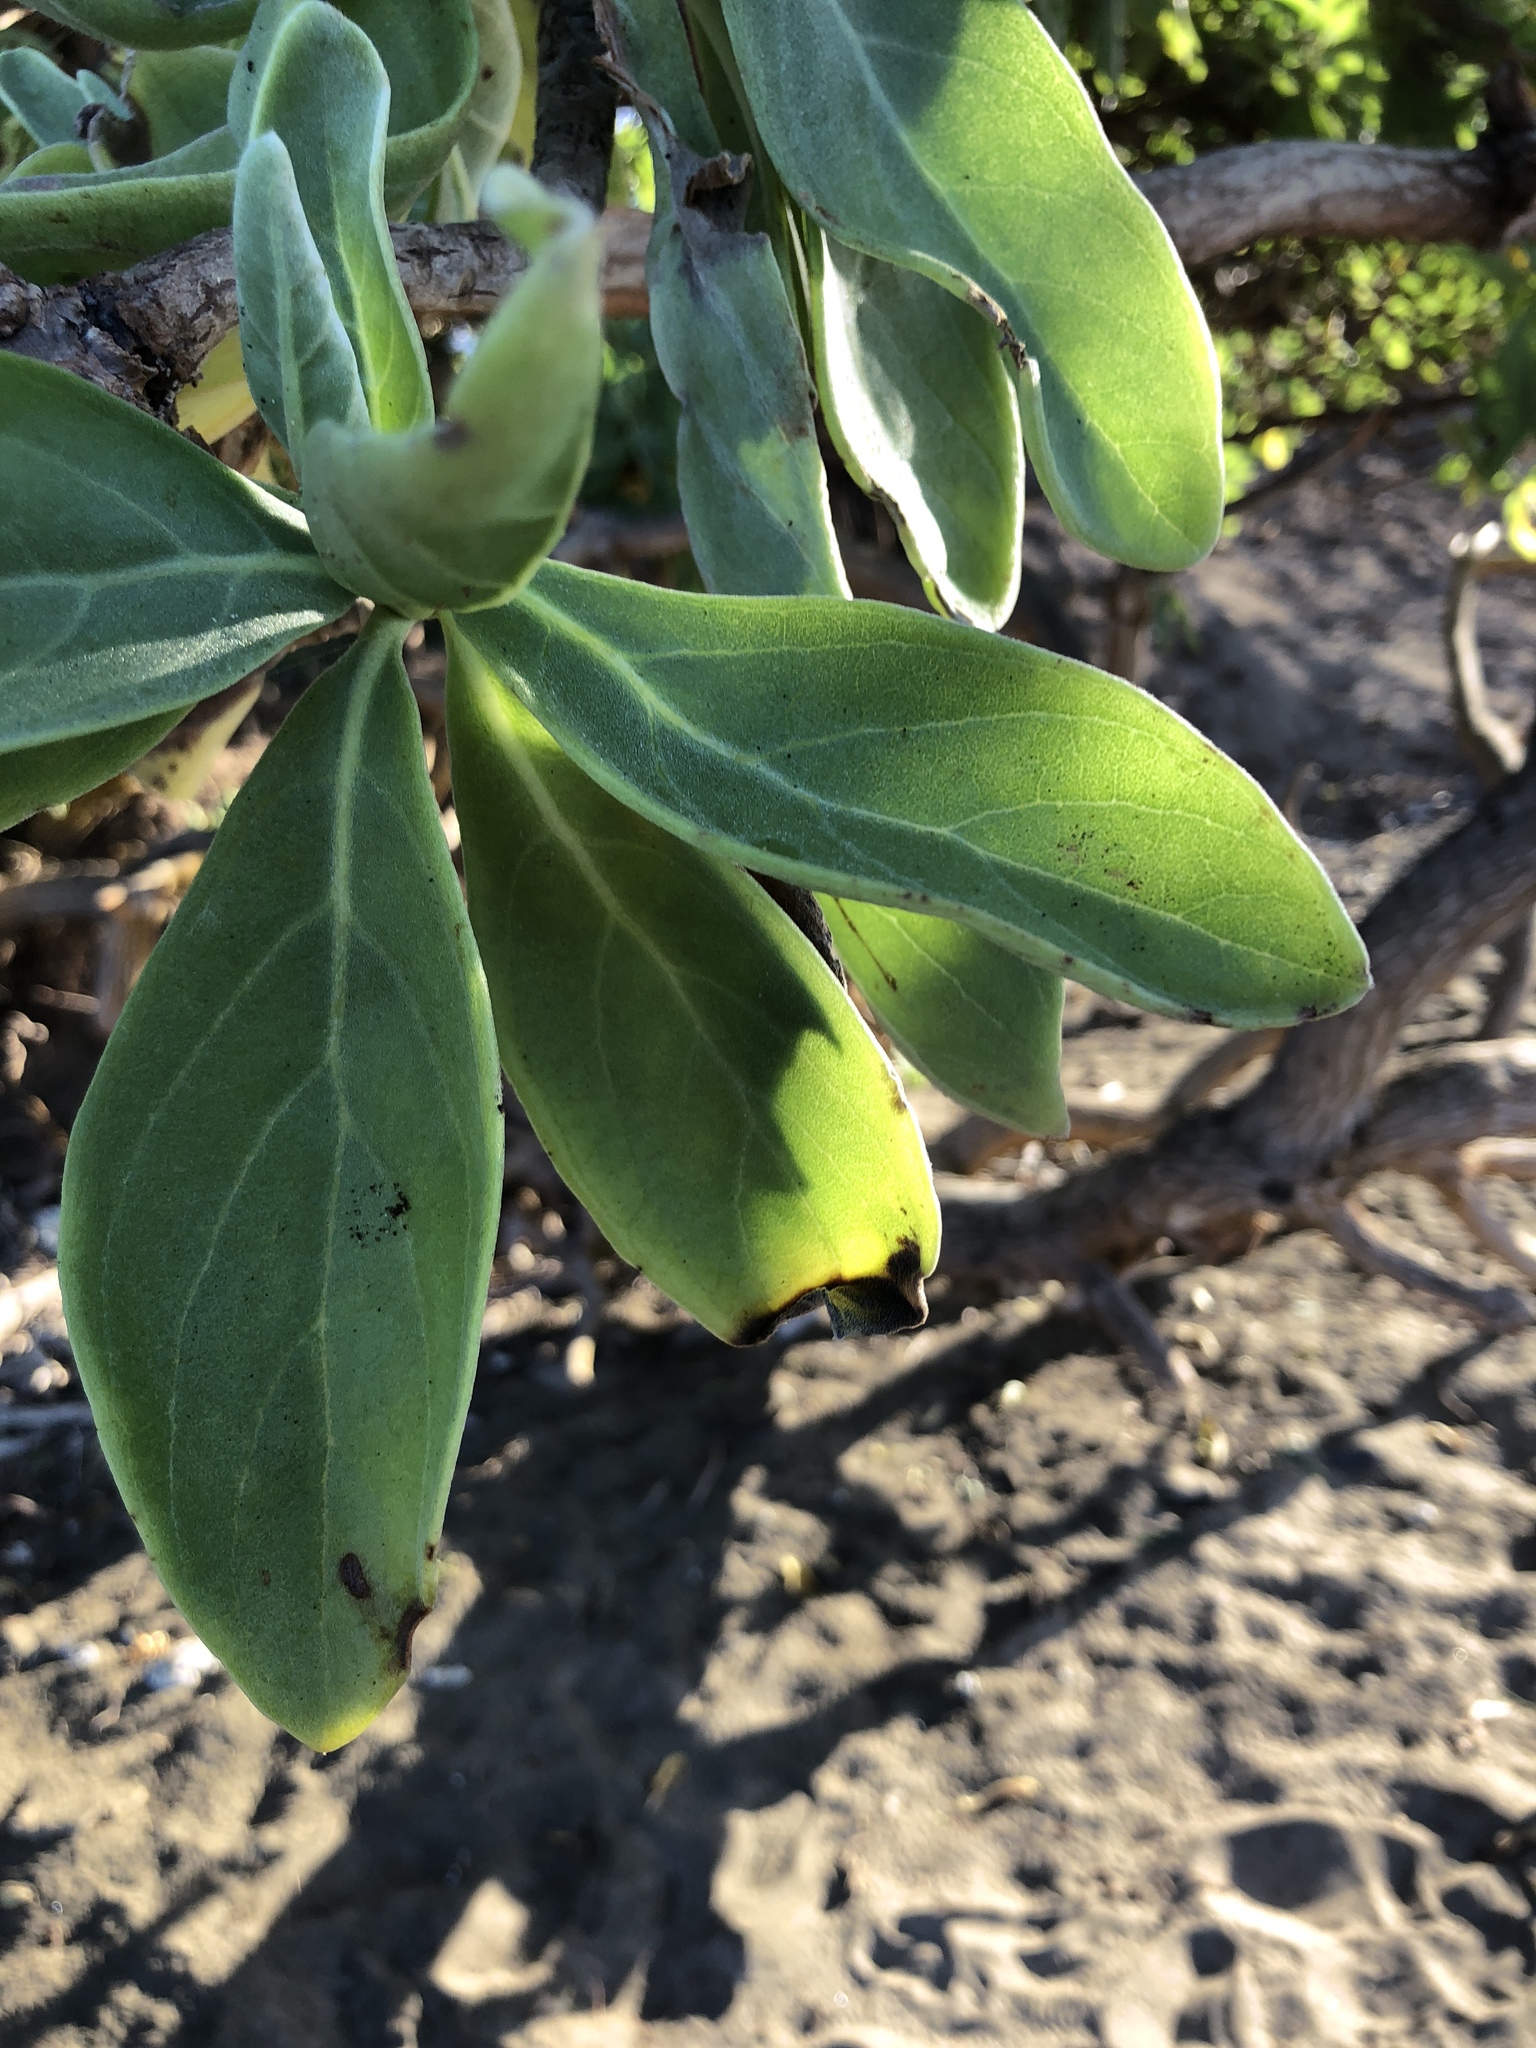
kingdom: Plantae
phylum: Tracheophyta
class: Magnoliopsida
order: Boraginales
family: Heliotropiaceae
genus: Heliotropium
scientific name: Heliotropium velutinum
